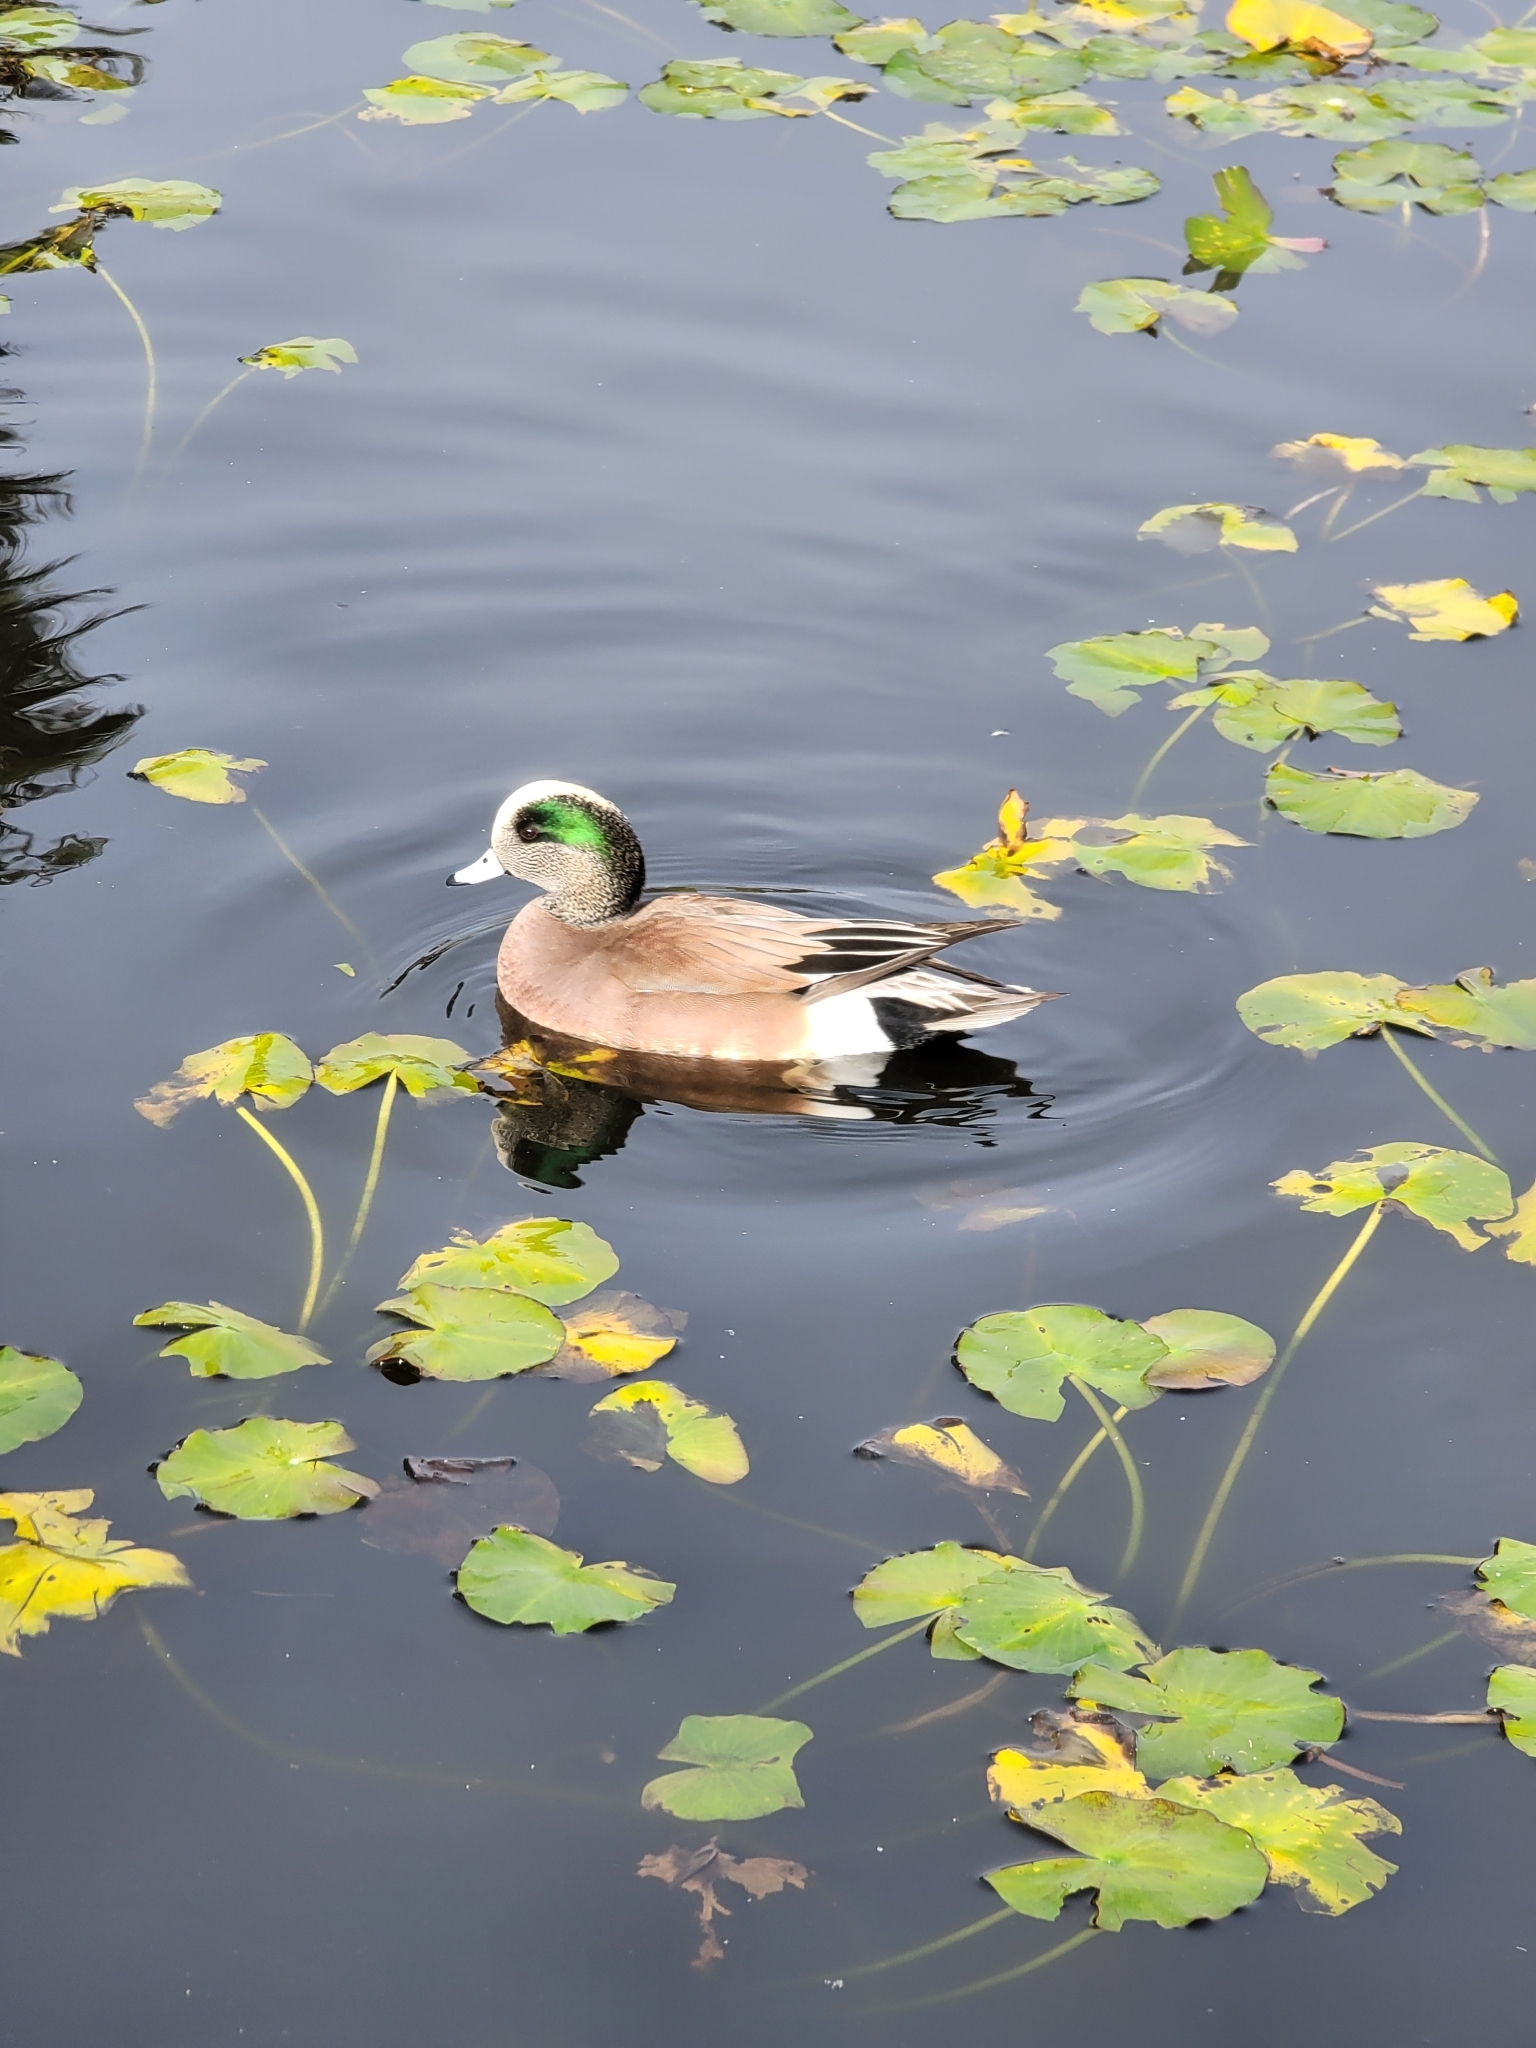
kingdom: Animalia
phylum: Chordata
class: Aves
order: Anseriformes
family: Anatidae
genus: Mareca
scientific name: Mareca americana
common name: American wigeon
